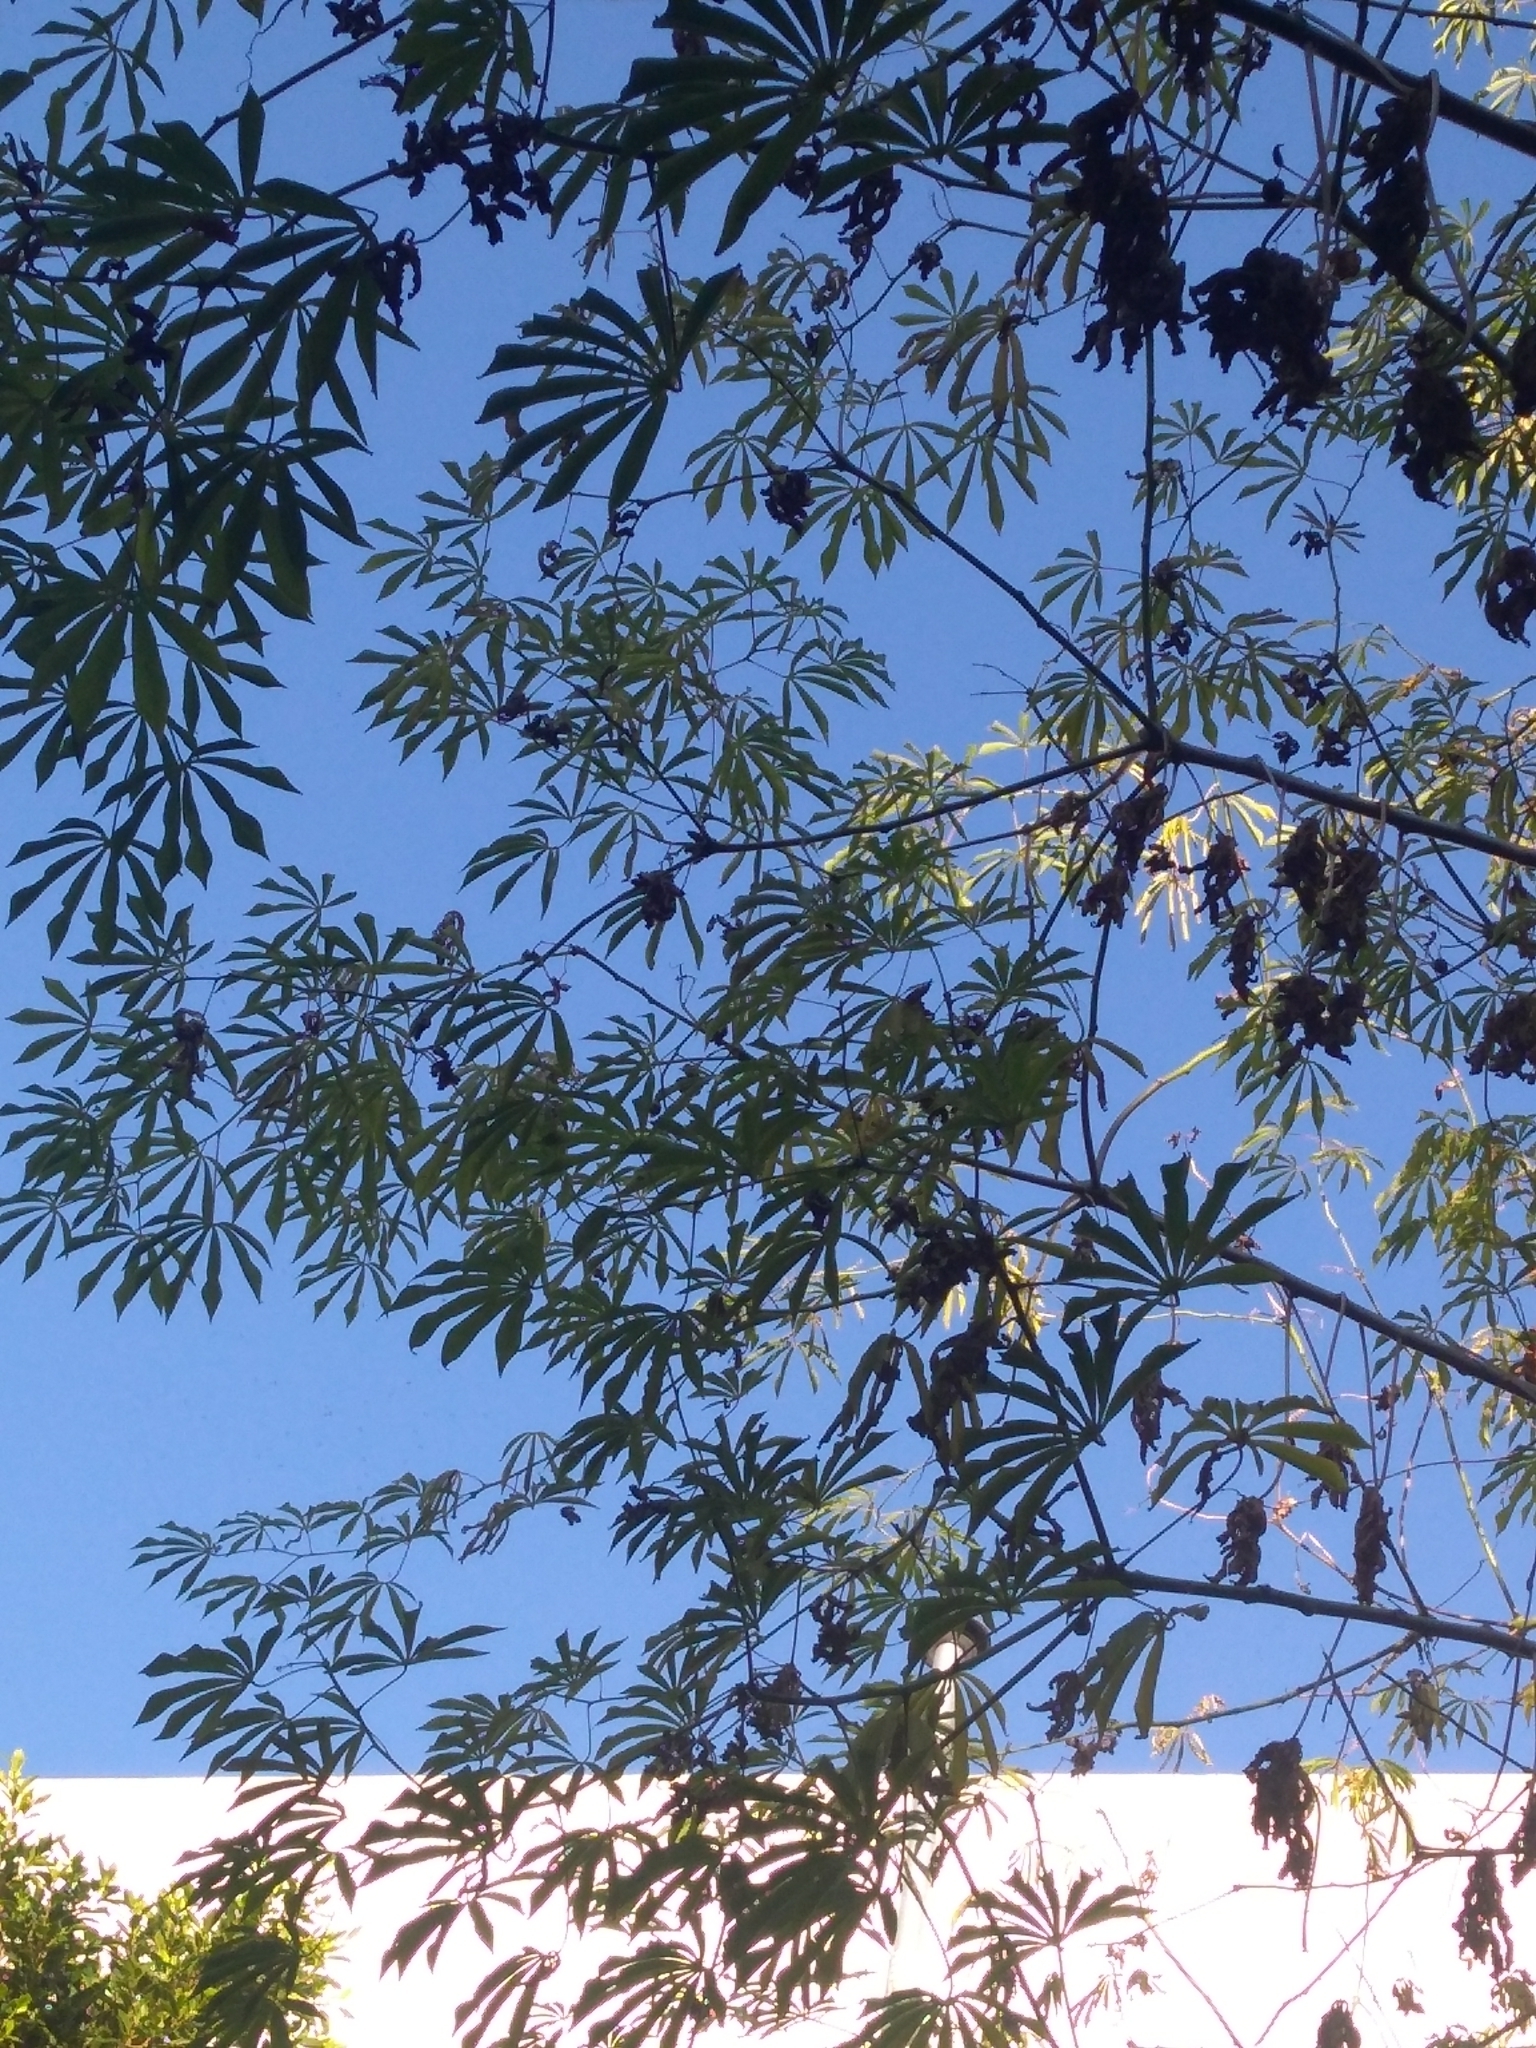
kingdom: Plantae
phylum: Tracheophyta
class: Magnoliopsida
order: Malpighiales
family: Euphorbiaceae
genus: Manihot
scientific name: Manihot grahamii
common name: Graham's manihot
